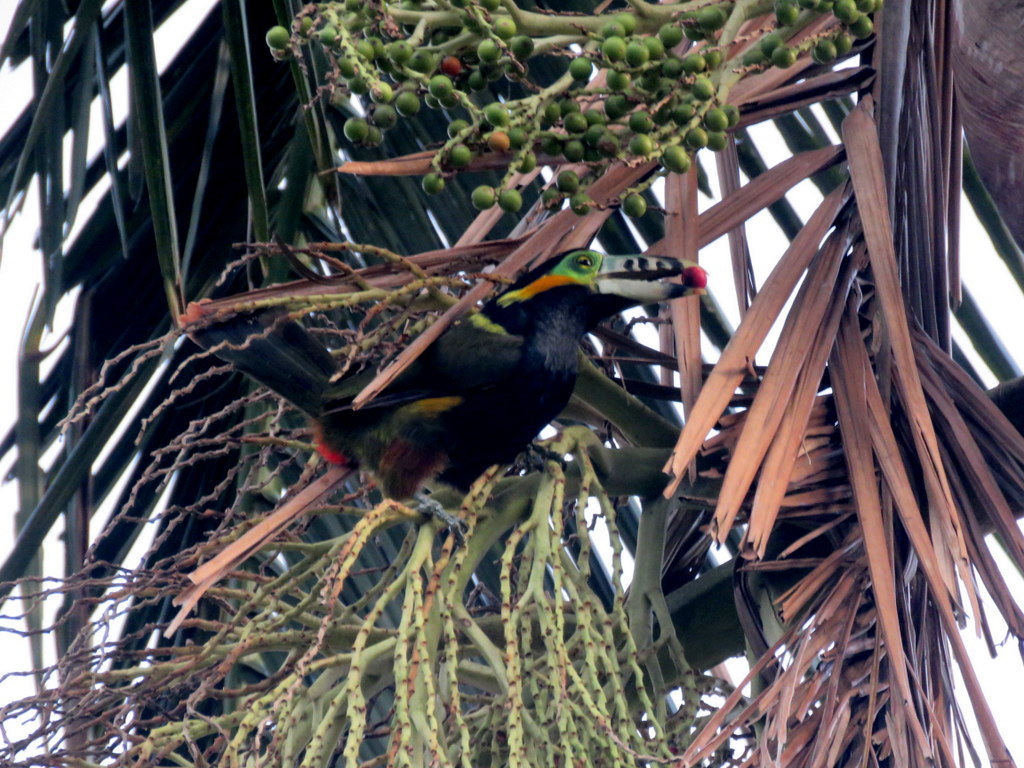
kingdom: Animalia
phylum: Chordata
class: Aves
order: Piciformes
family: Ramphastidae
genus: Selenidera
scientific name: Selenidera maculirostris
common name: Spot-billed toucanet
